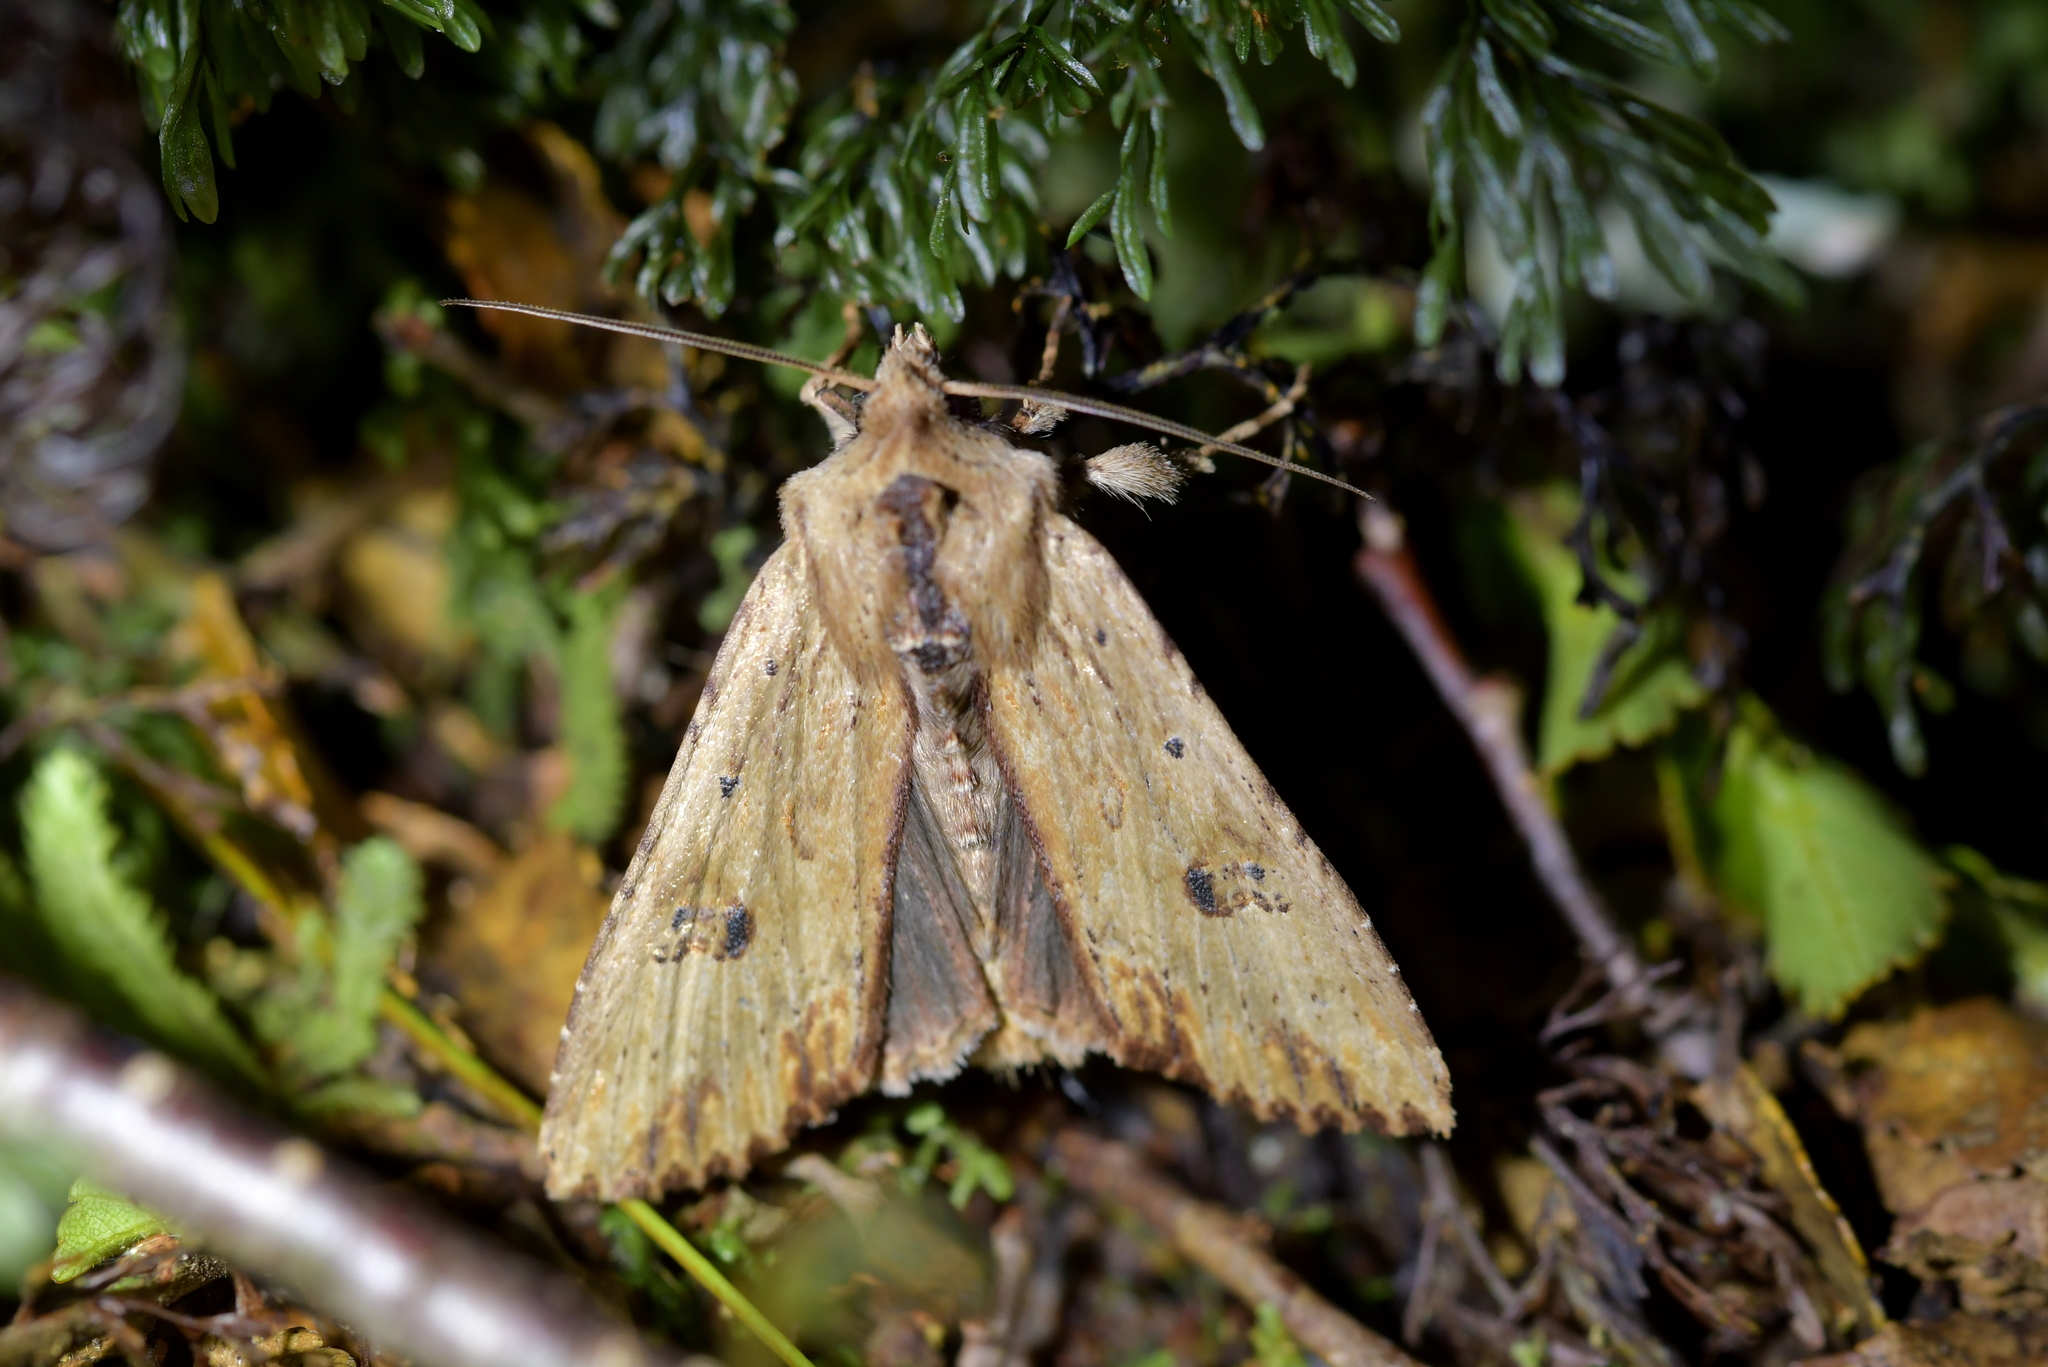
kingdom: Animalia
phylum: Arthropoda
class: Insecta
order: Lepidoptera
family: Noctuidae
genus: Ichneutica
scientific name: Ichneutica
